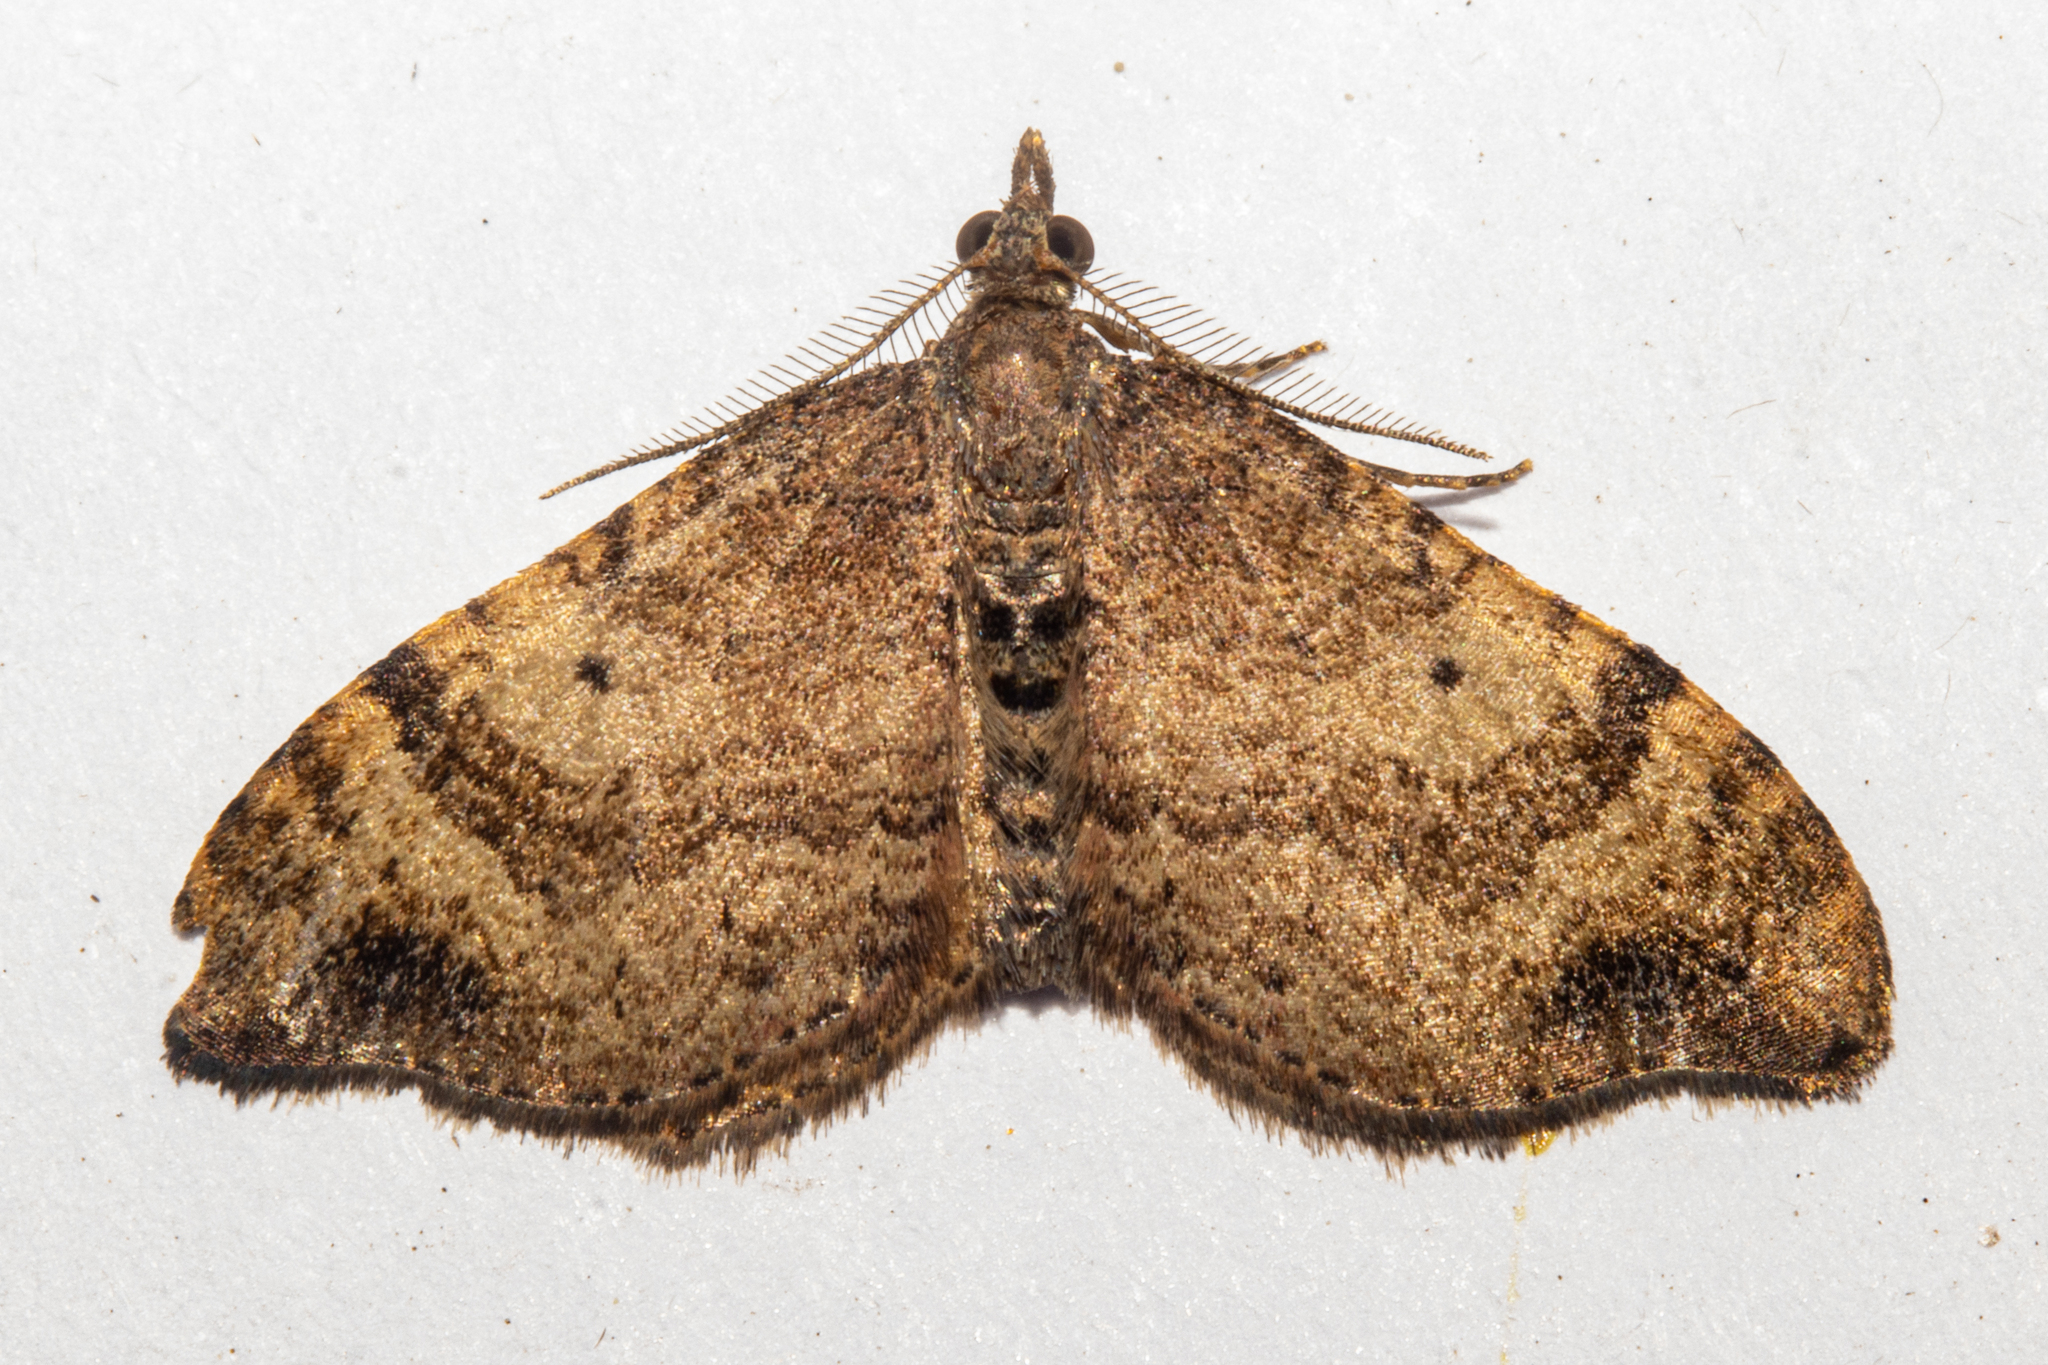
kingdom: Animalia
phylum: Arthropoda
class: Insecta
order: Lepidoptera
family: Geometridae
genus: Homodotis
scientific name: Homodotis megaspilata
